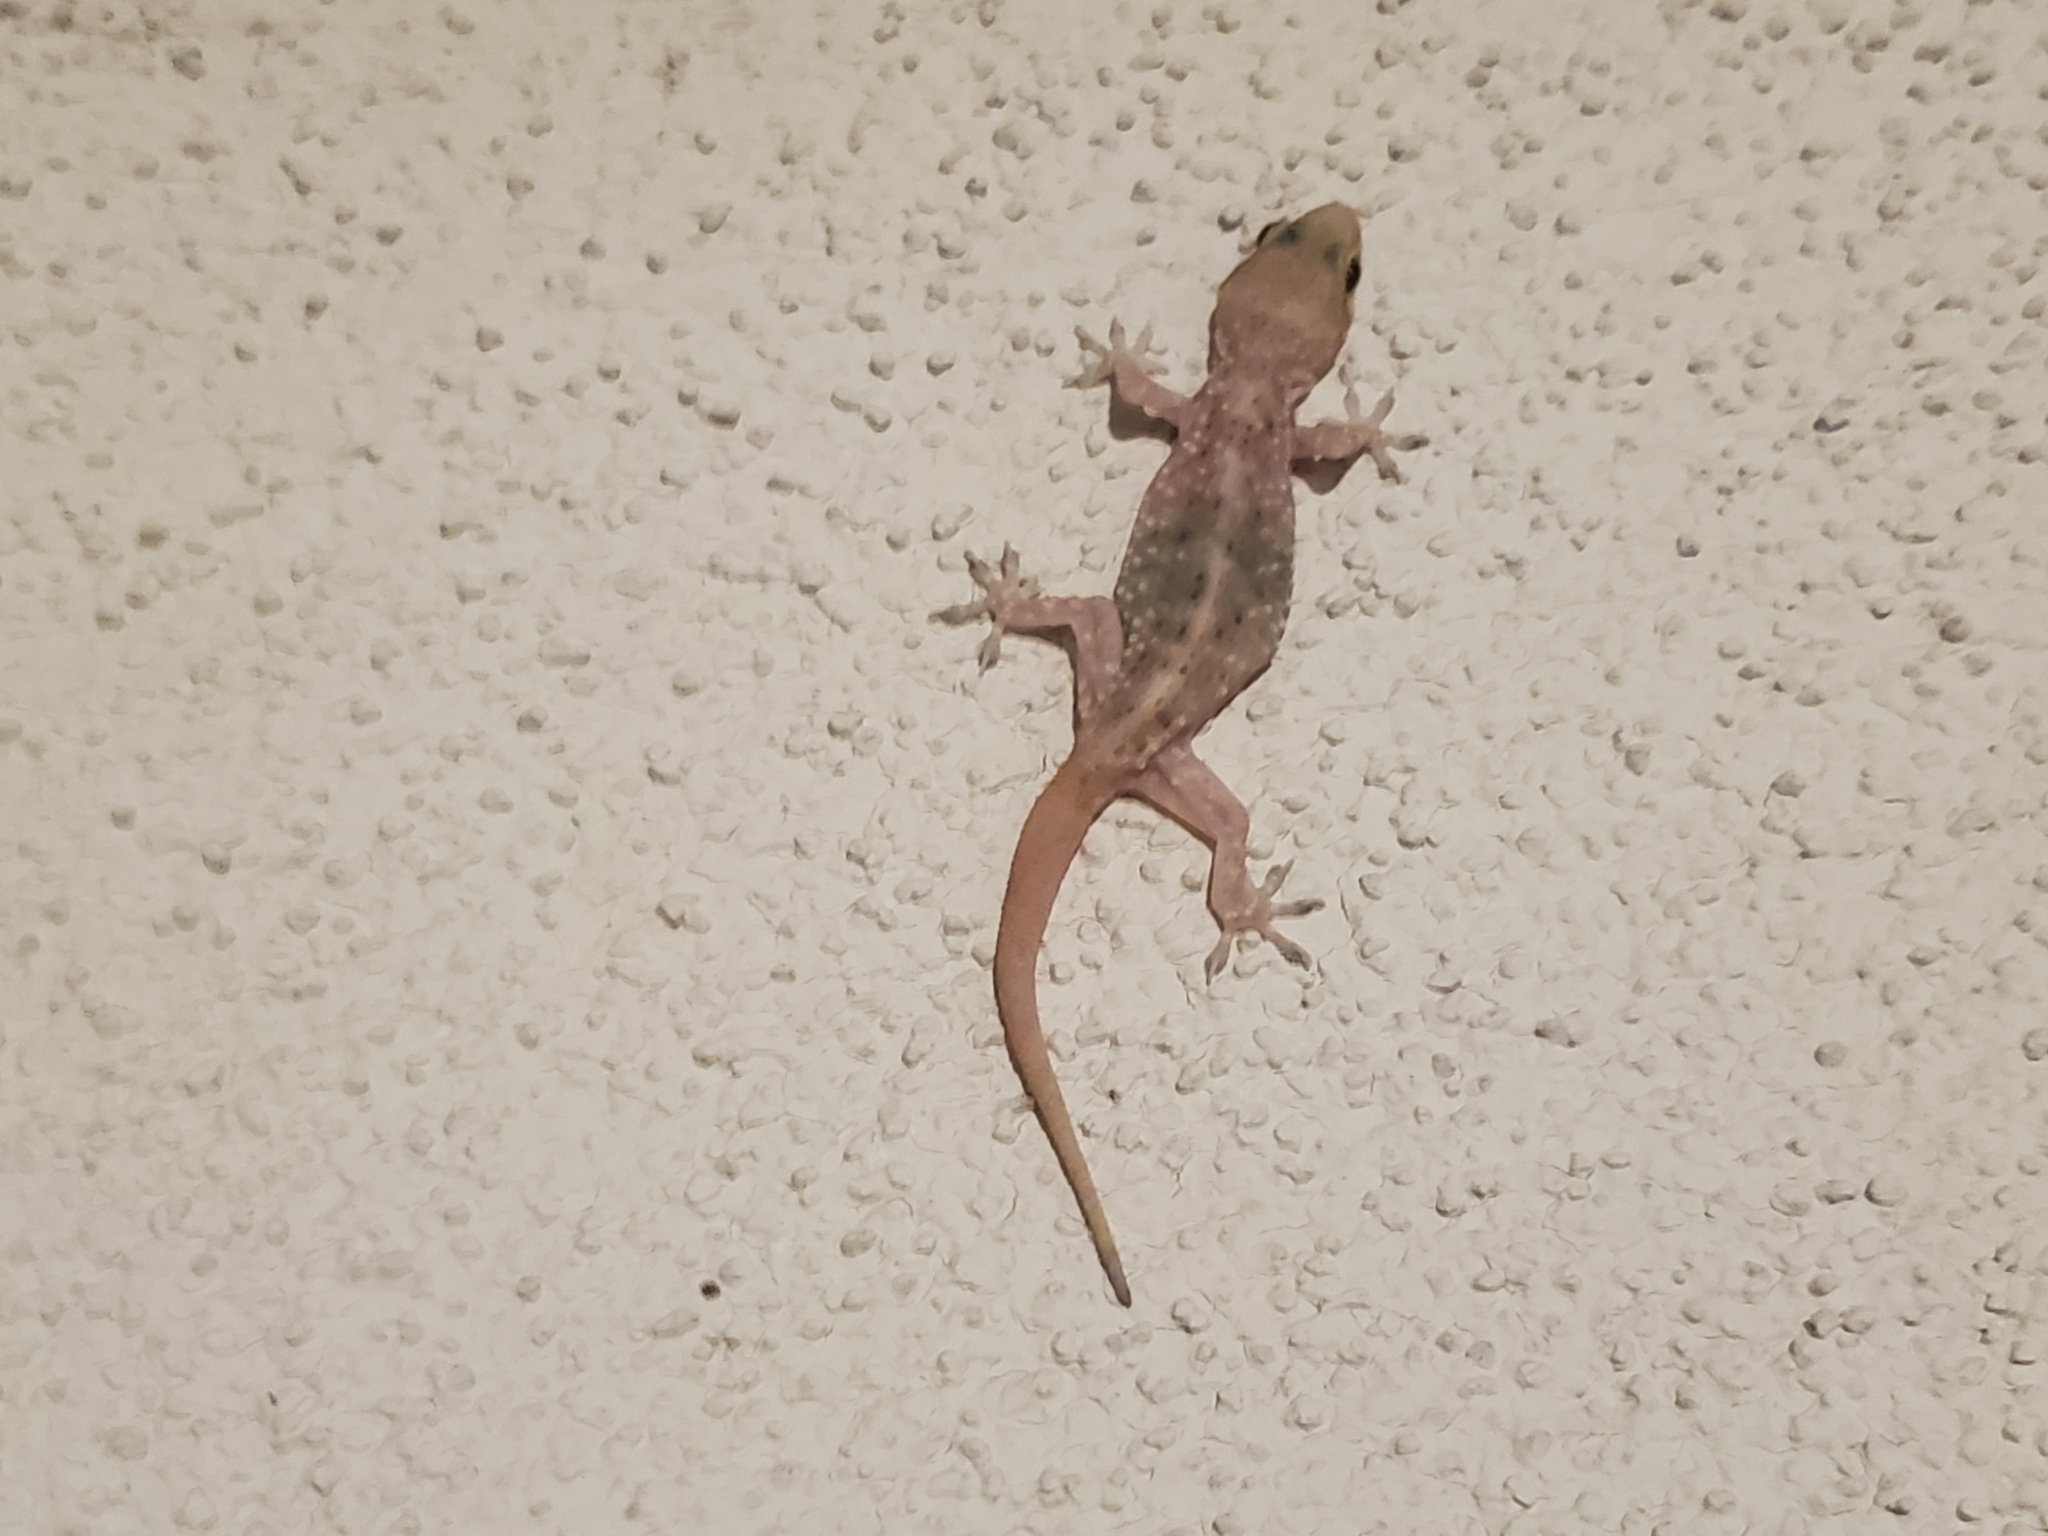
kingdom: Animalia
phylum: Chordata
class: Squamata
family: Gekkonidae
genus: Hemidactylus
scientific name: Hemidactylus turcicus
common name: Turkish gecko
